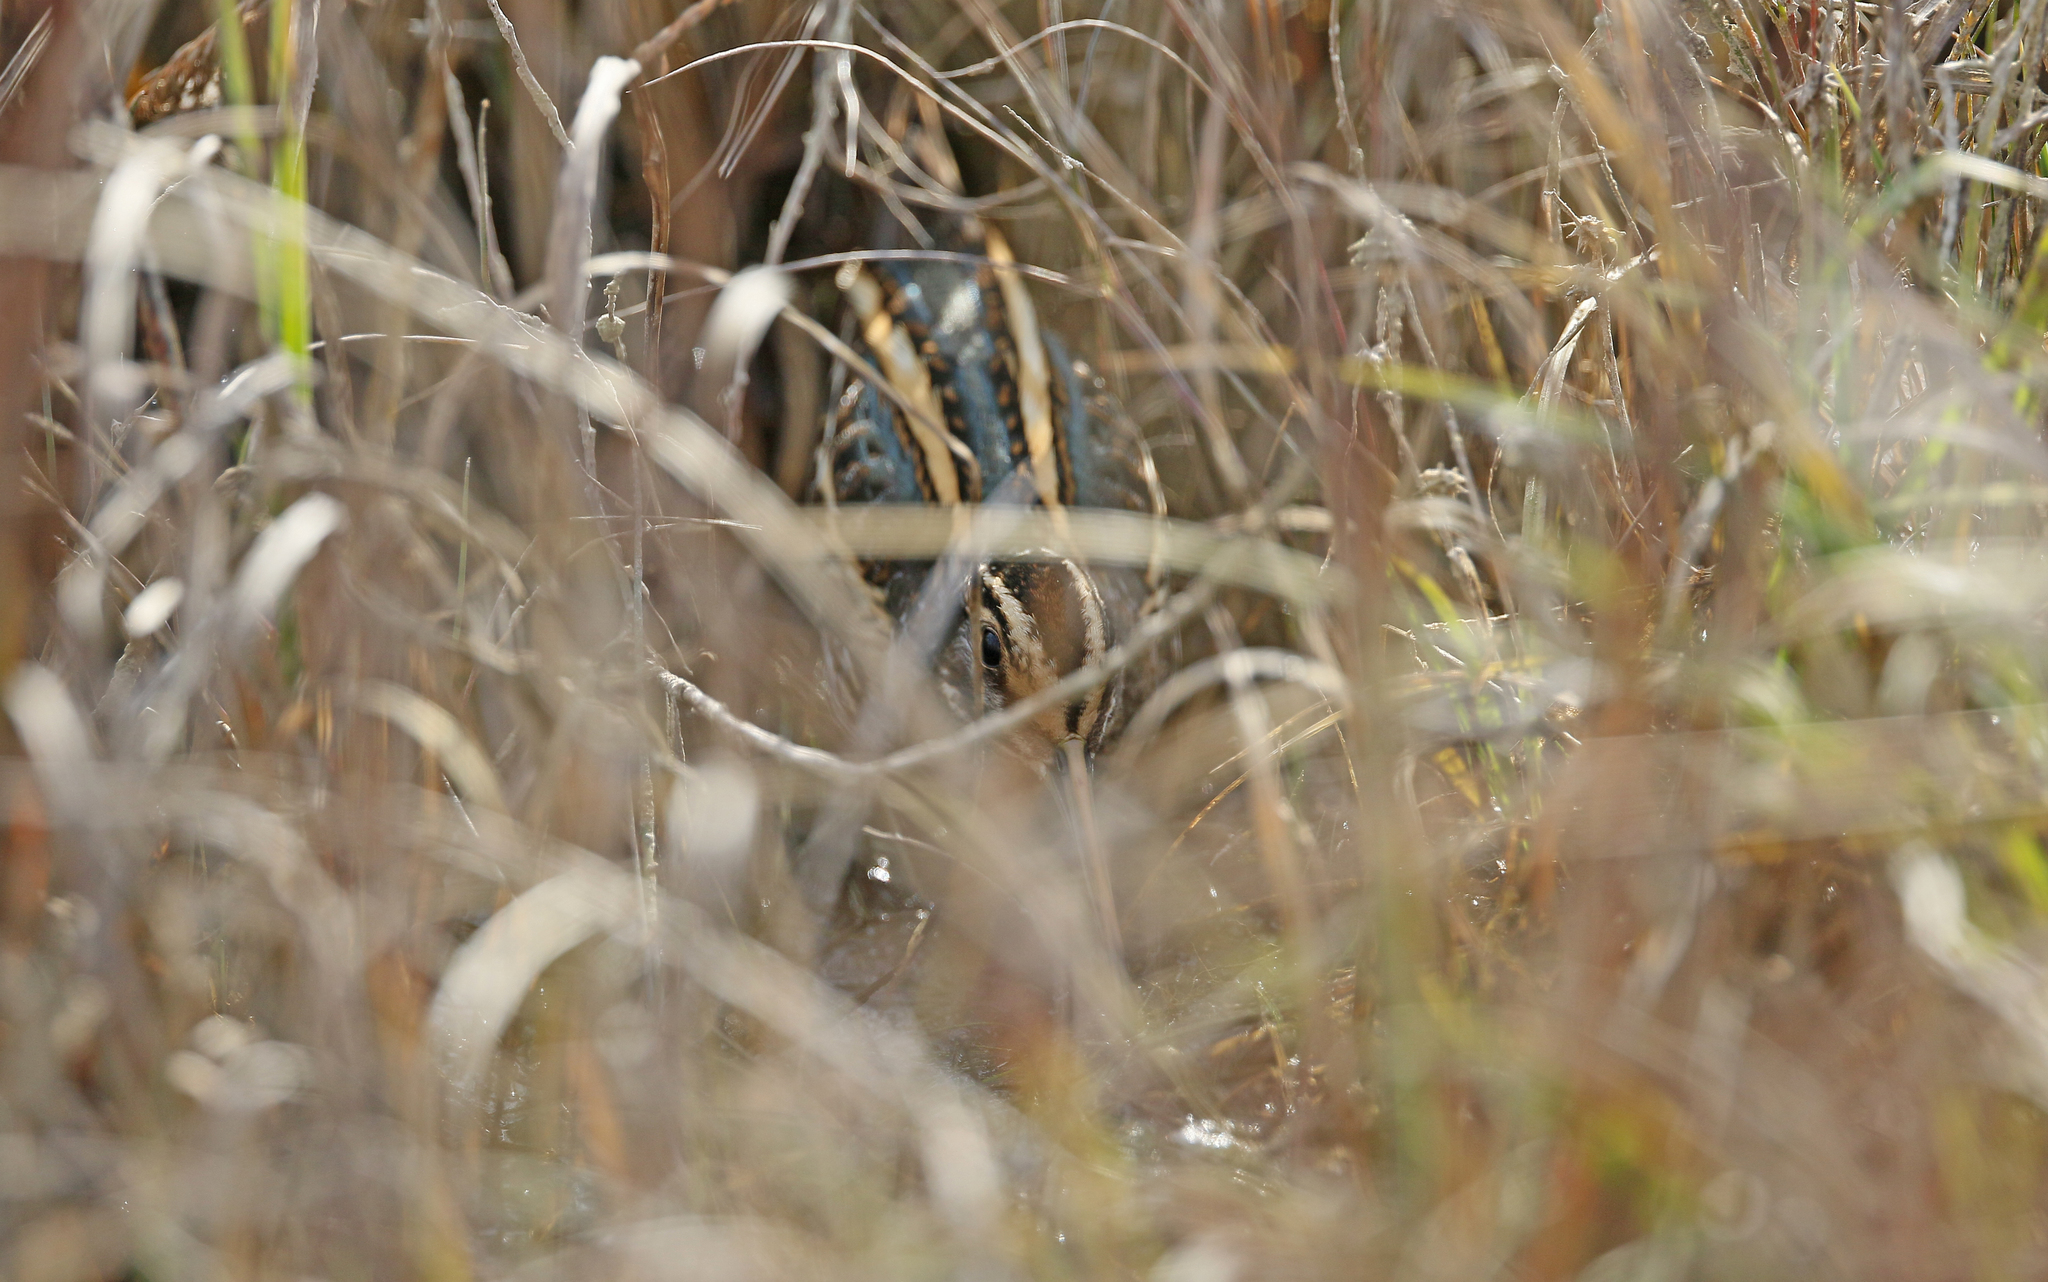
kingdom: Animalia
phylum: Chordata
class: Aves
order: Charadriiformes
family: Scolopacidae
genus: Lymnocryptes
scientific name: Lymnocryptes minimus
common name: Jack snipe
